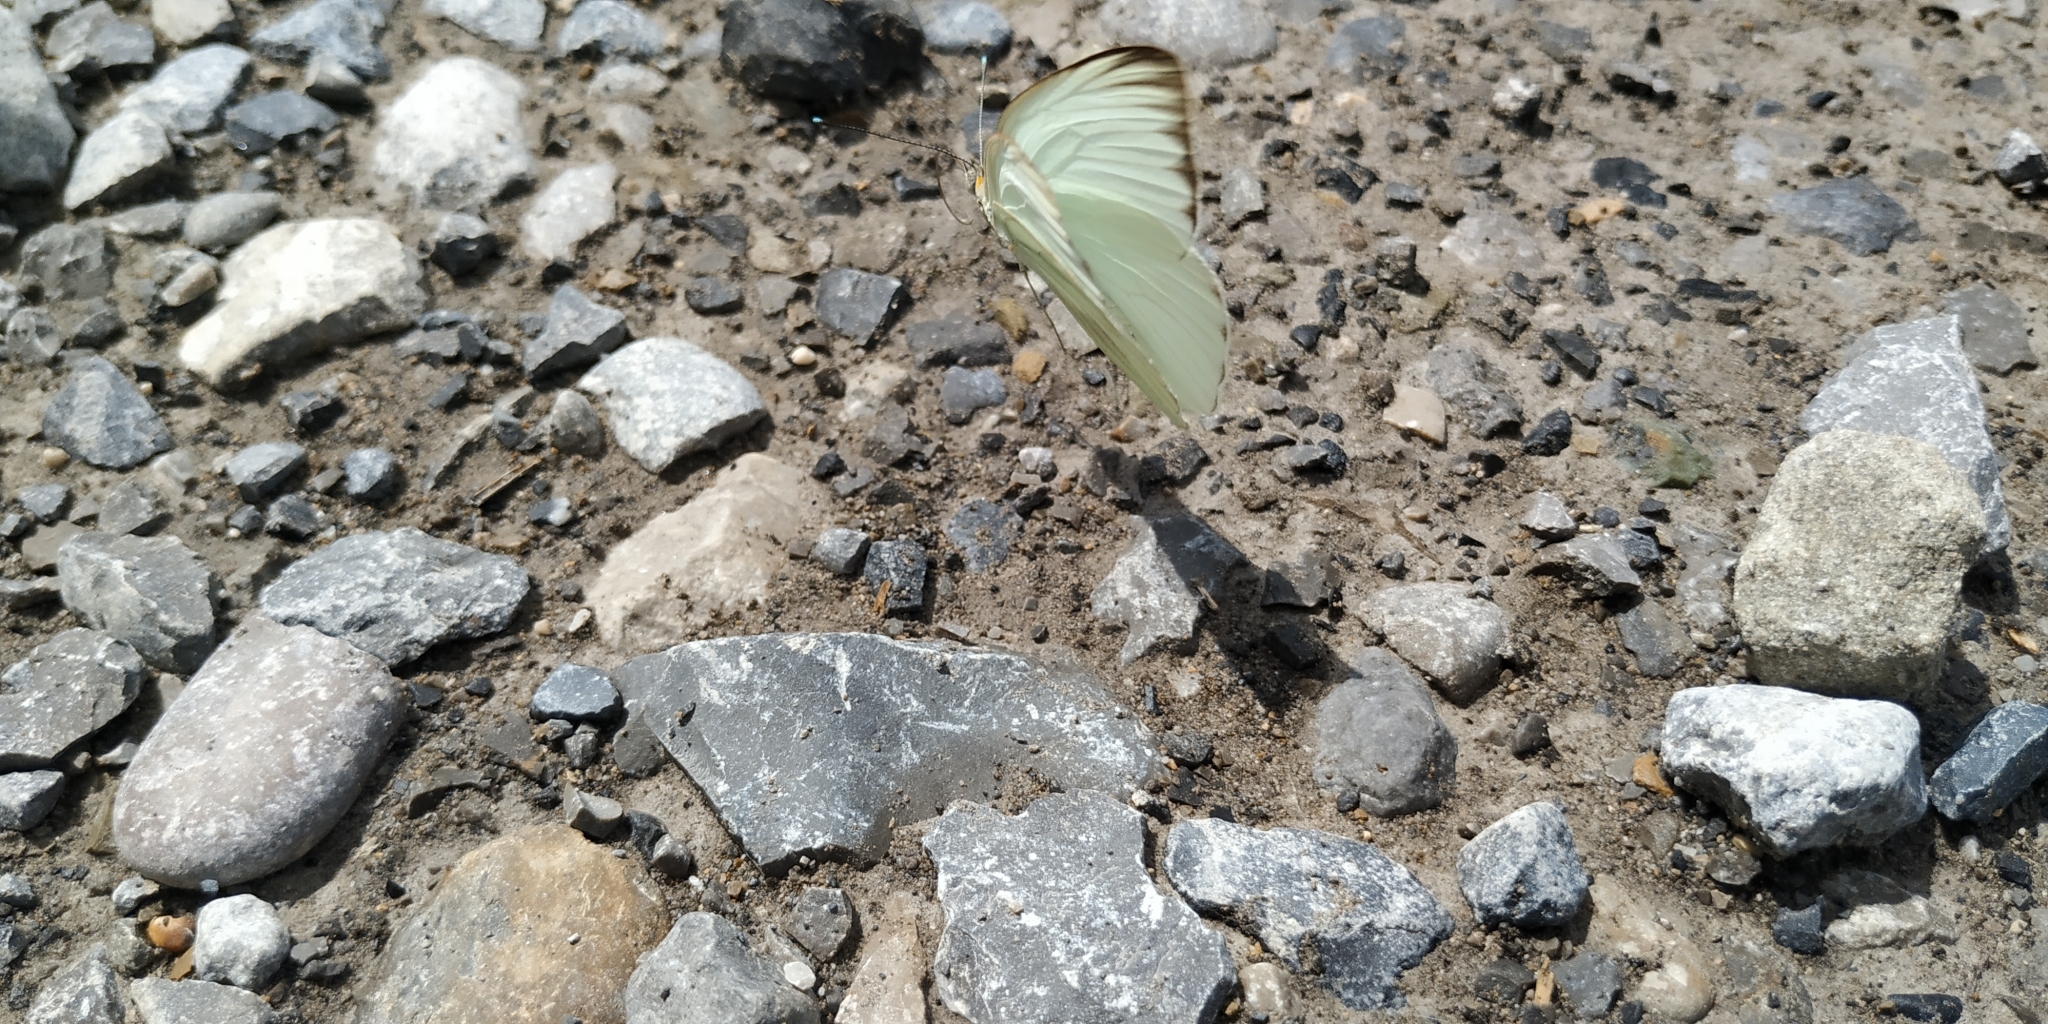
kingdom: Animalia
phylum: Arthropoda
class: Insecta
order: Lepidoptera
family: Pieridae
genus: Ascia
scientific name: Ascia monuste
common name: Great southern white
